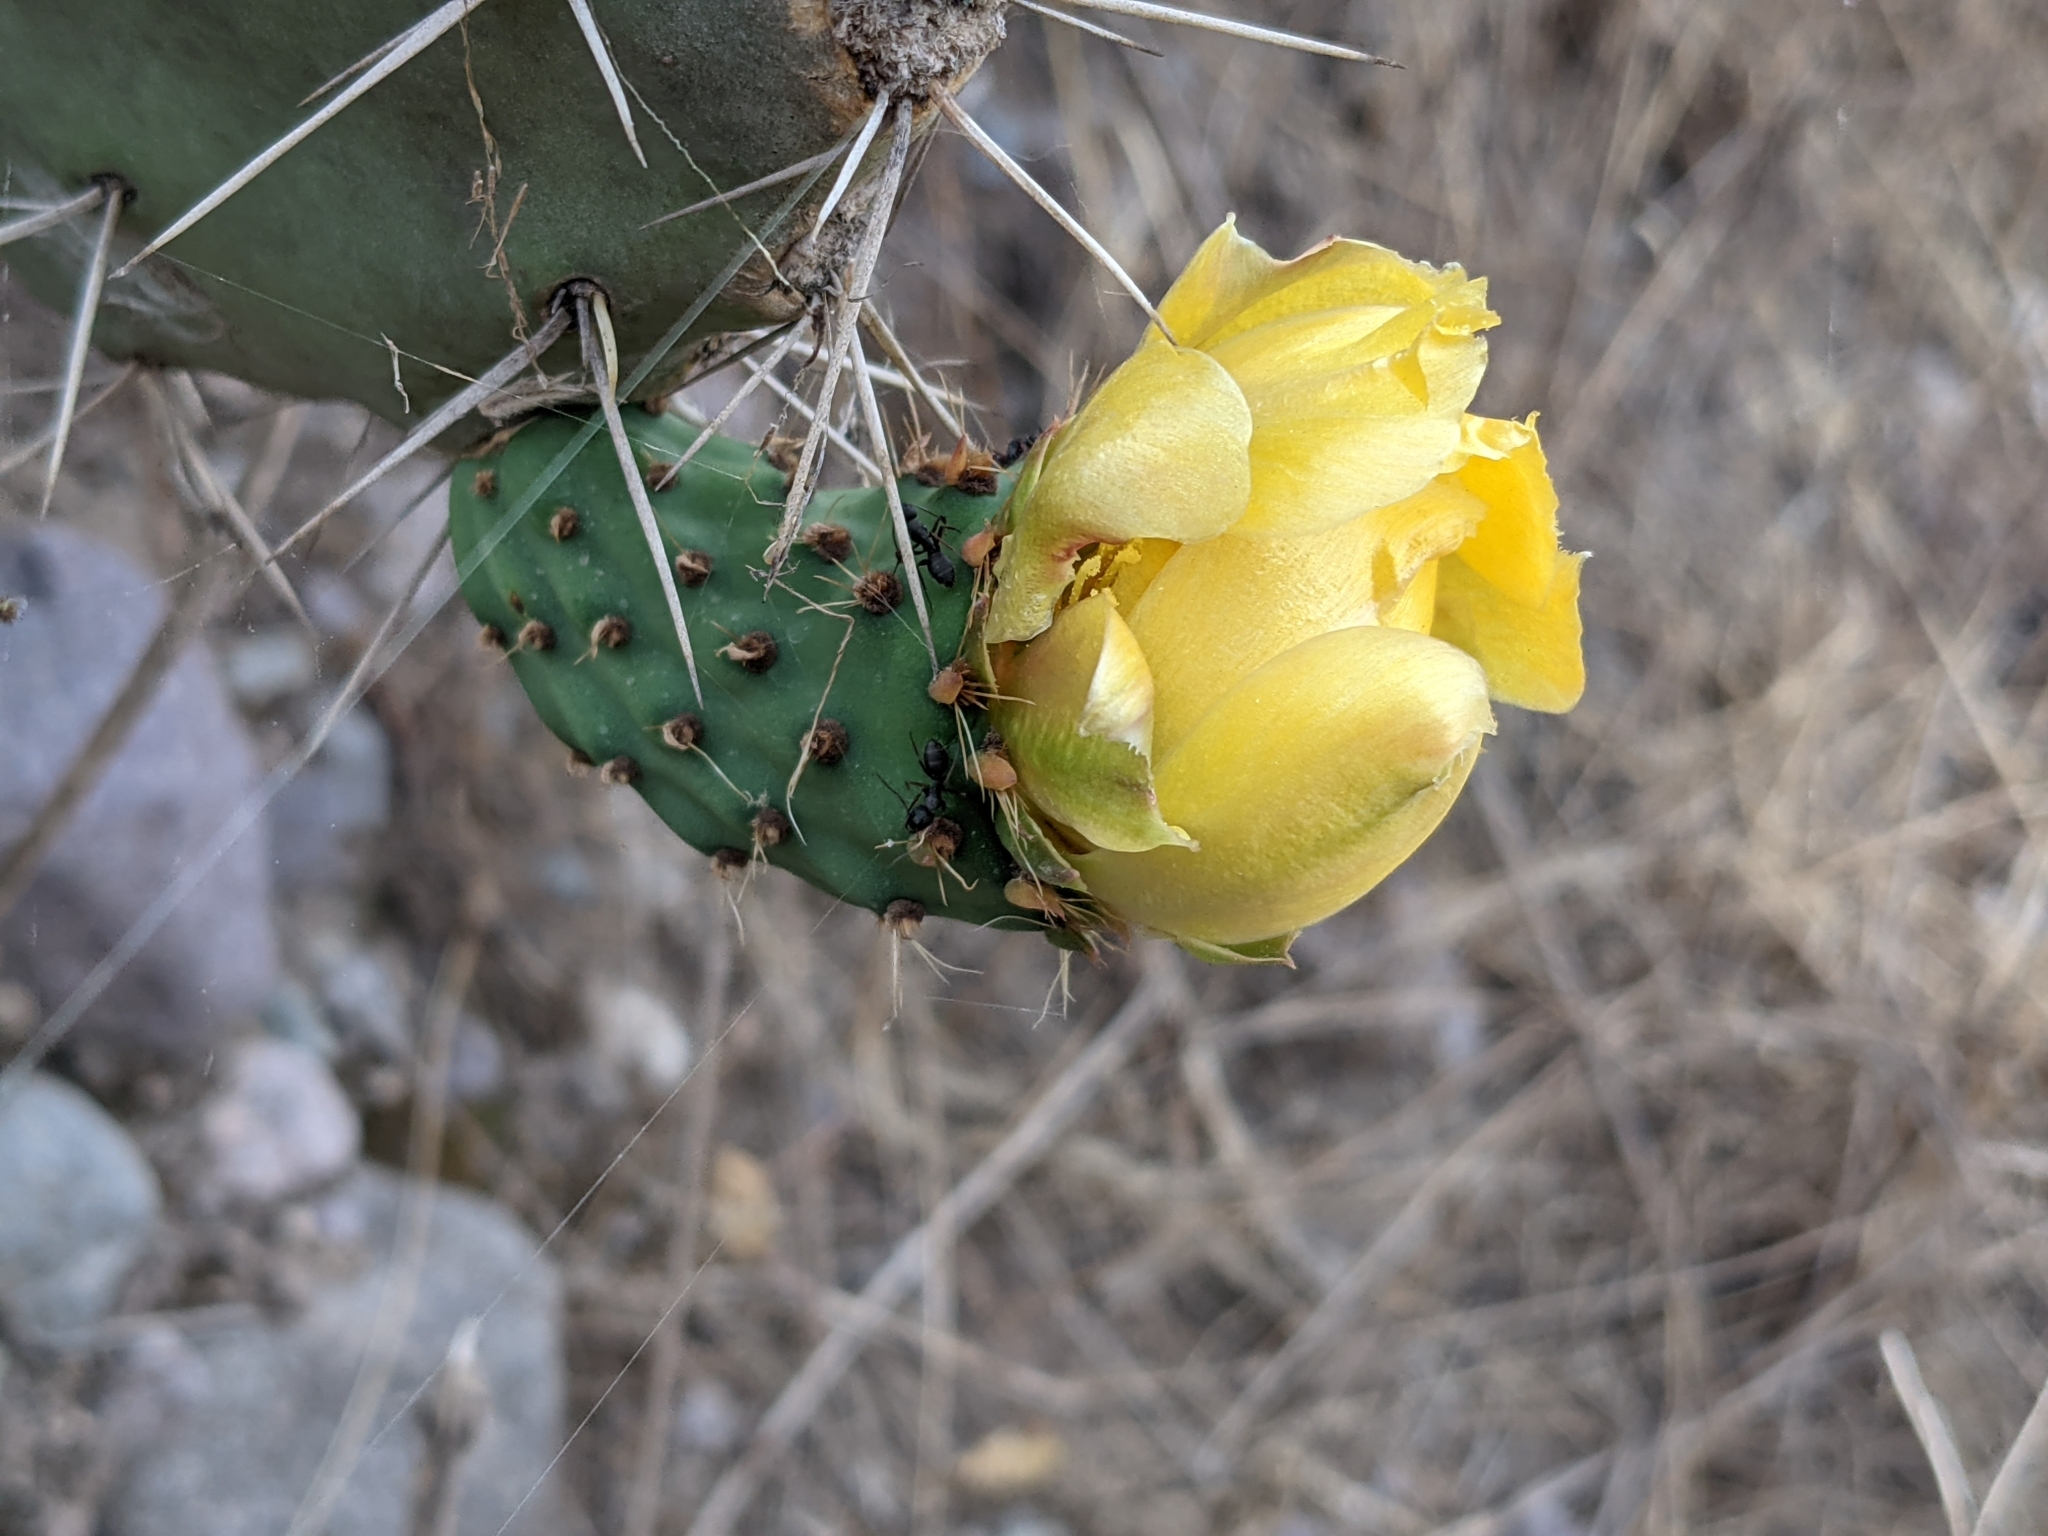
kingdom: Plantae
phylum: Tracheophyta
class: Magnoliopsida
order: Caryophyllales
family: Cactaceae
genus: Opuntia
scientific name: Opuntia ficus-indica
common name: Barbary fig
